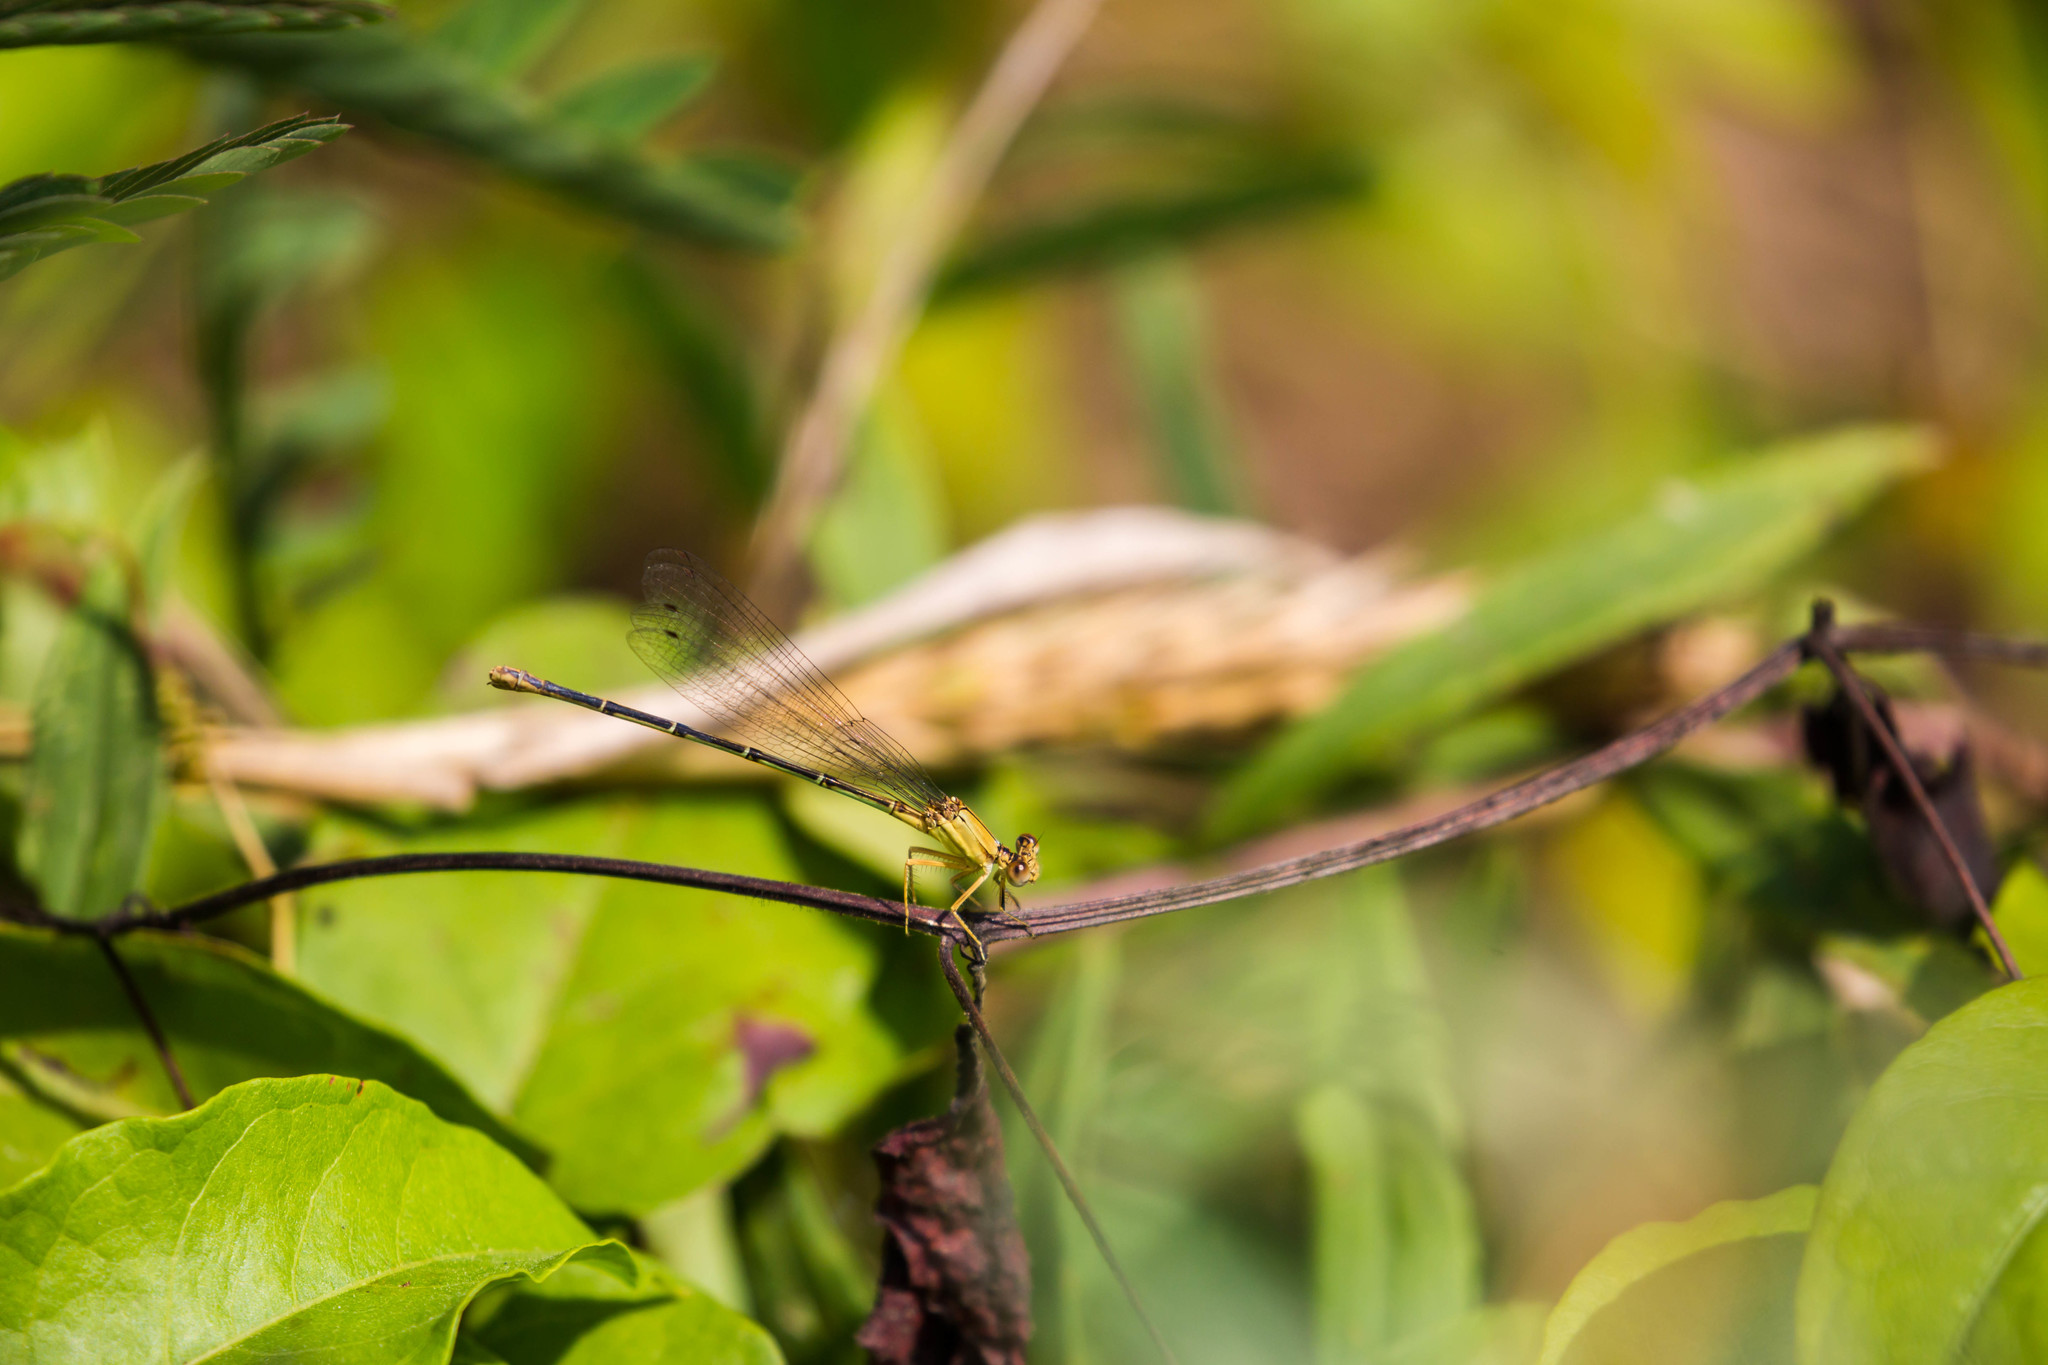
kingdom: Animalia
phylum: Arthropoda
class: Insecta
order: Odonata
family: Coenagrionidae
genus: Argia
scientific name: Argia apicalis
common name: Blue-fronted dancer
